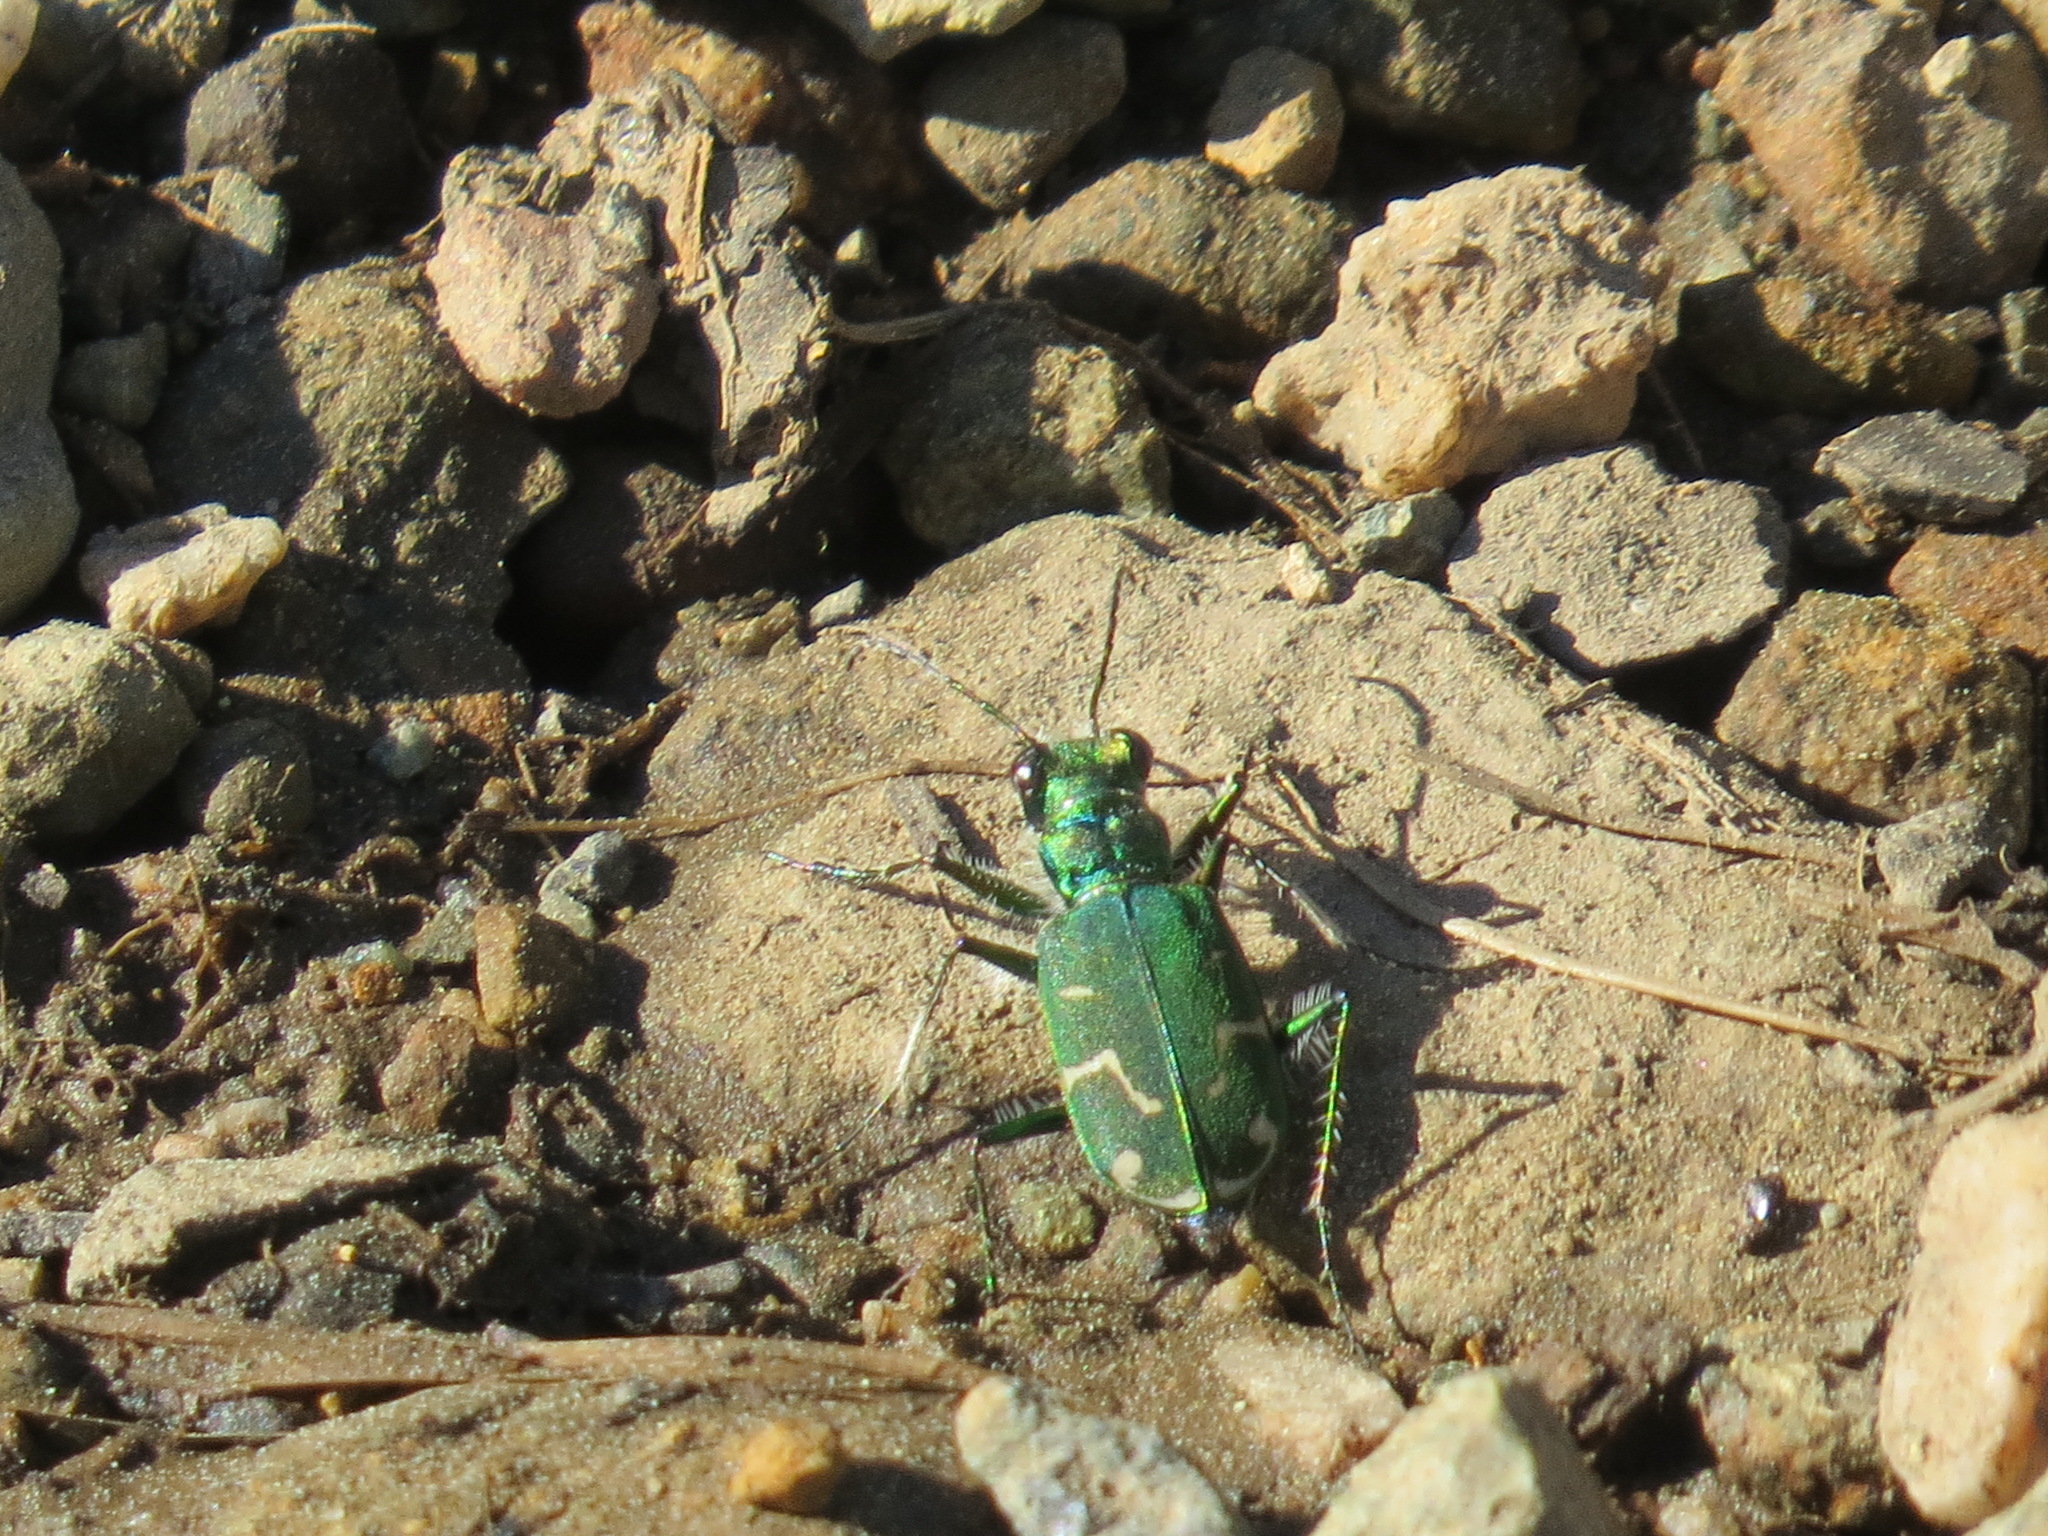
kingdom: Animalia
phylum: Arthropoda
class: Insecta
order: Coleoptera
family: Carabidae
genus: Cicindela
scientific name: Cicindela tranquebarica
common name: Oblique-lined tiger beetle
